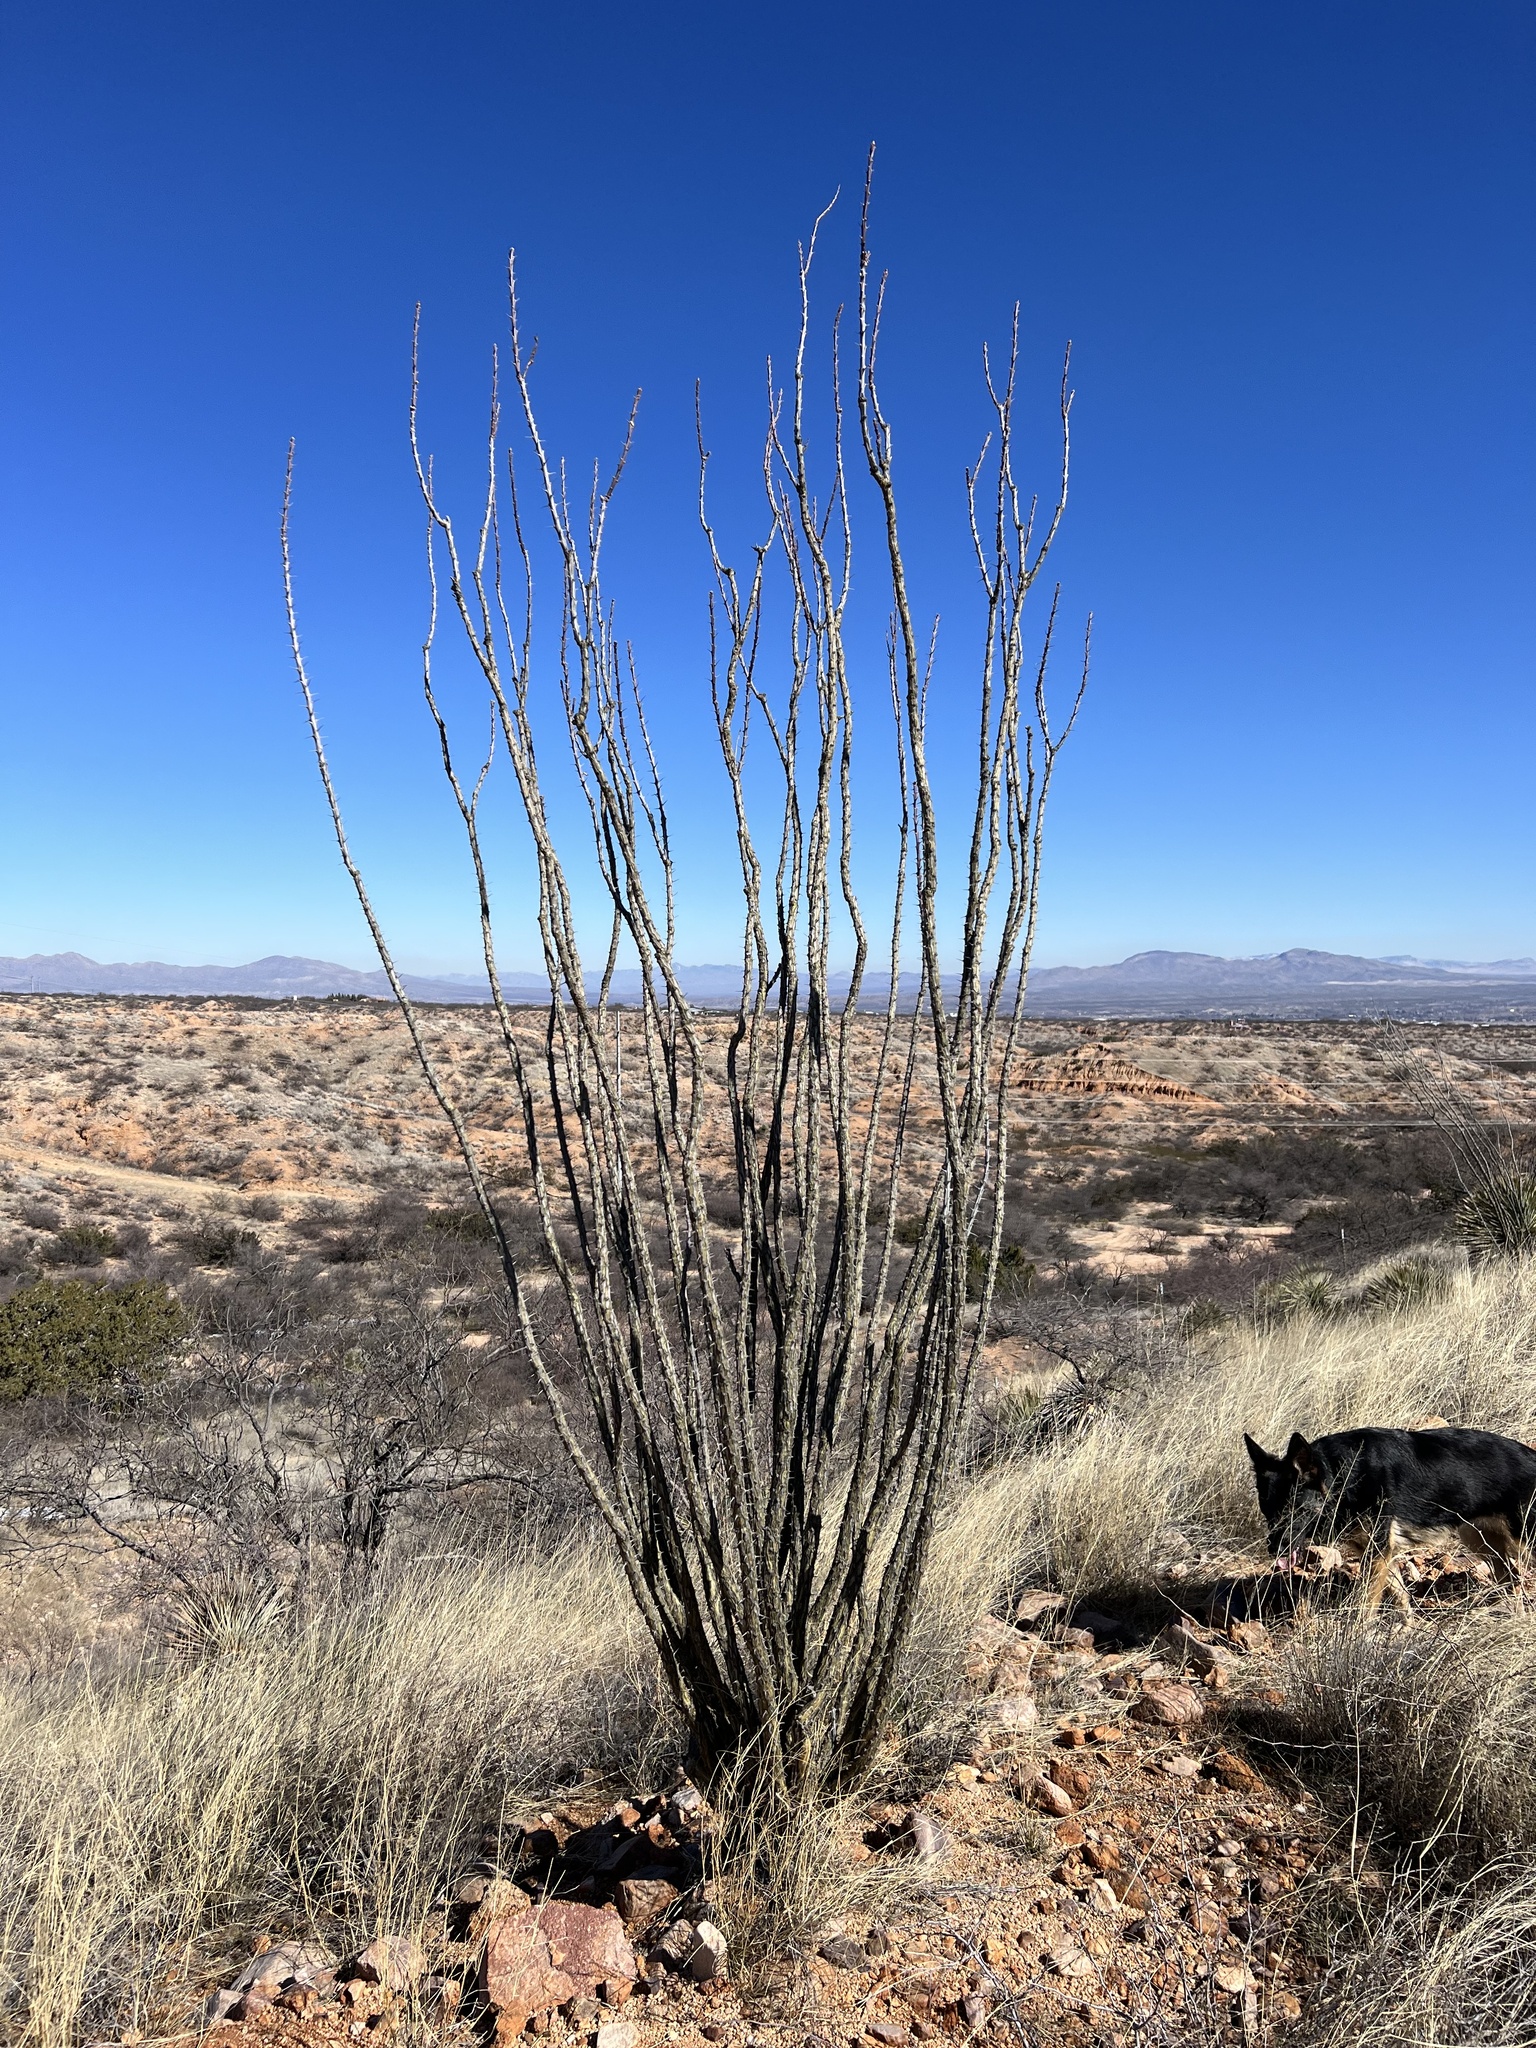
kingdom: Plantae
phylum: Tracheophyta
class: Magnoliopsida
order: Ericales
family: Fouquieriaceae
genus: Fouquieria
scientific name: Fouquieria splendens
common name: Vine-cactus
